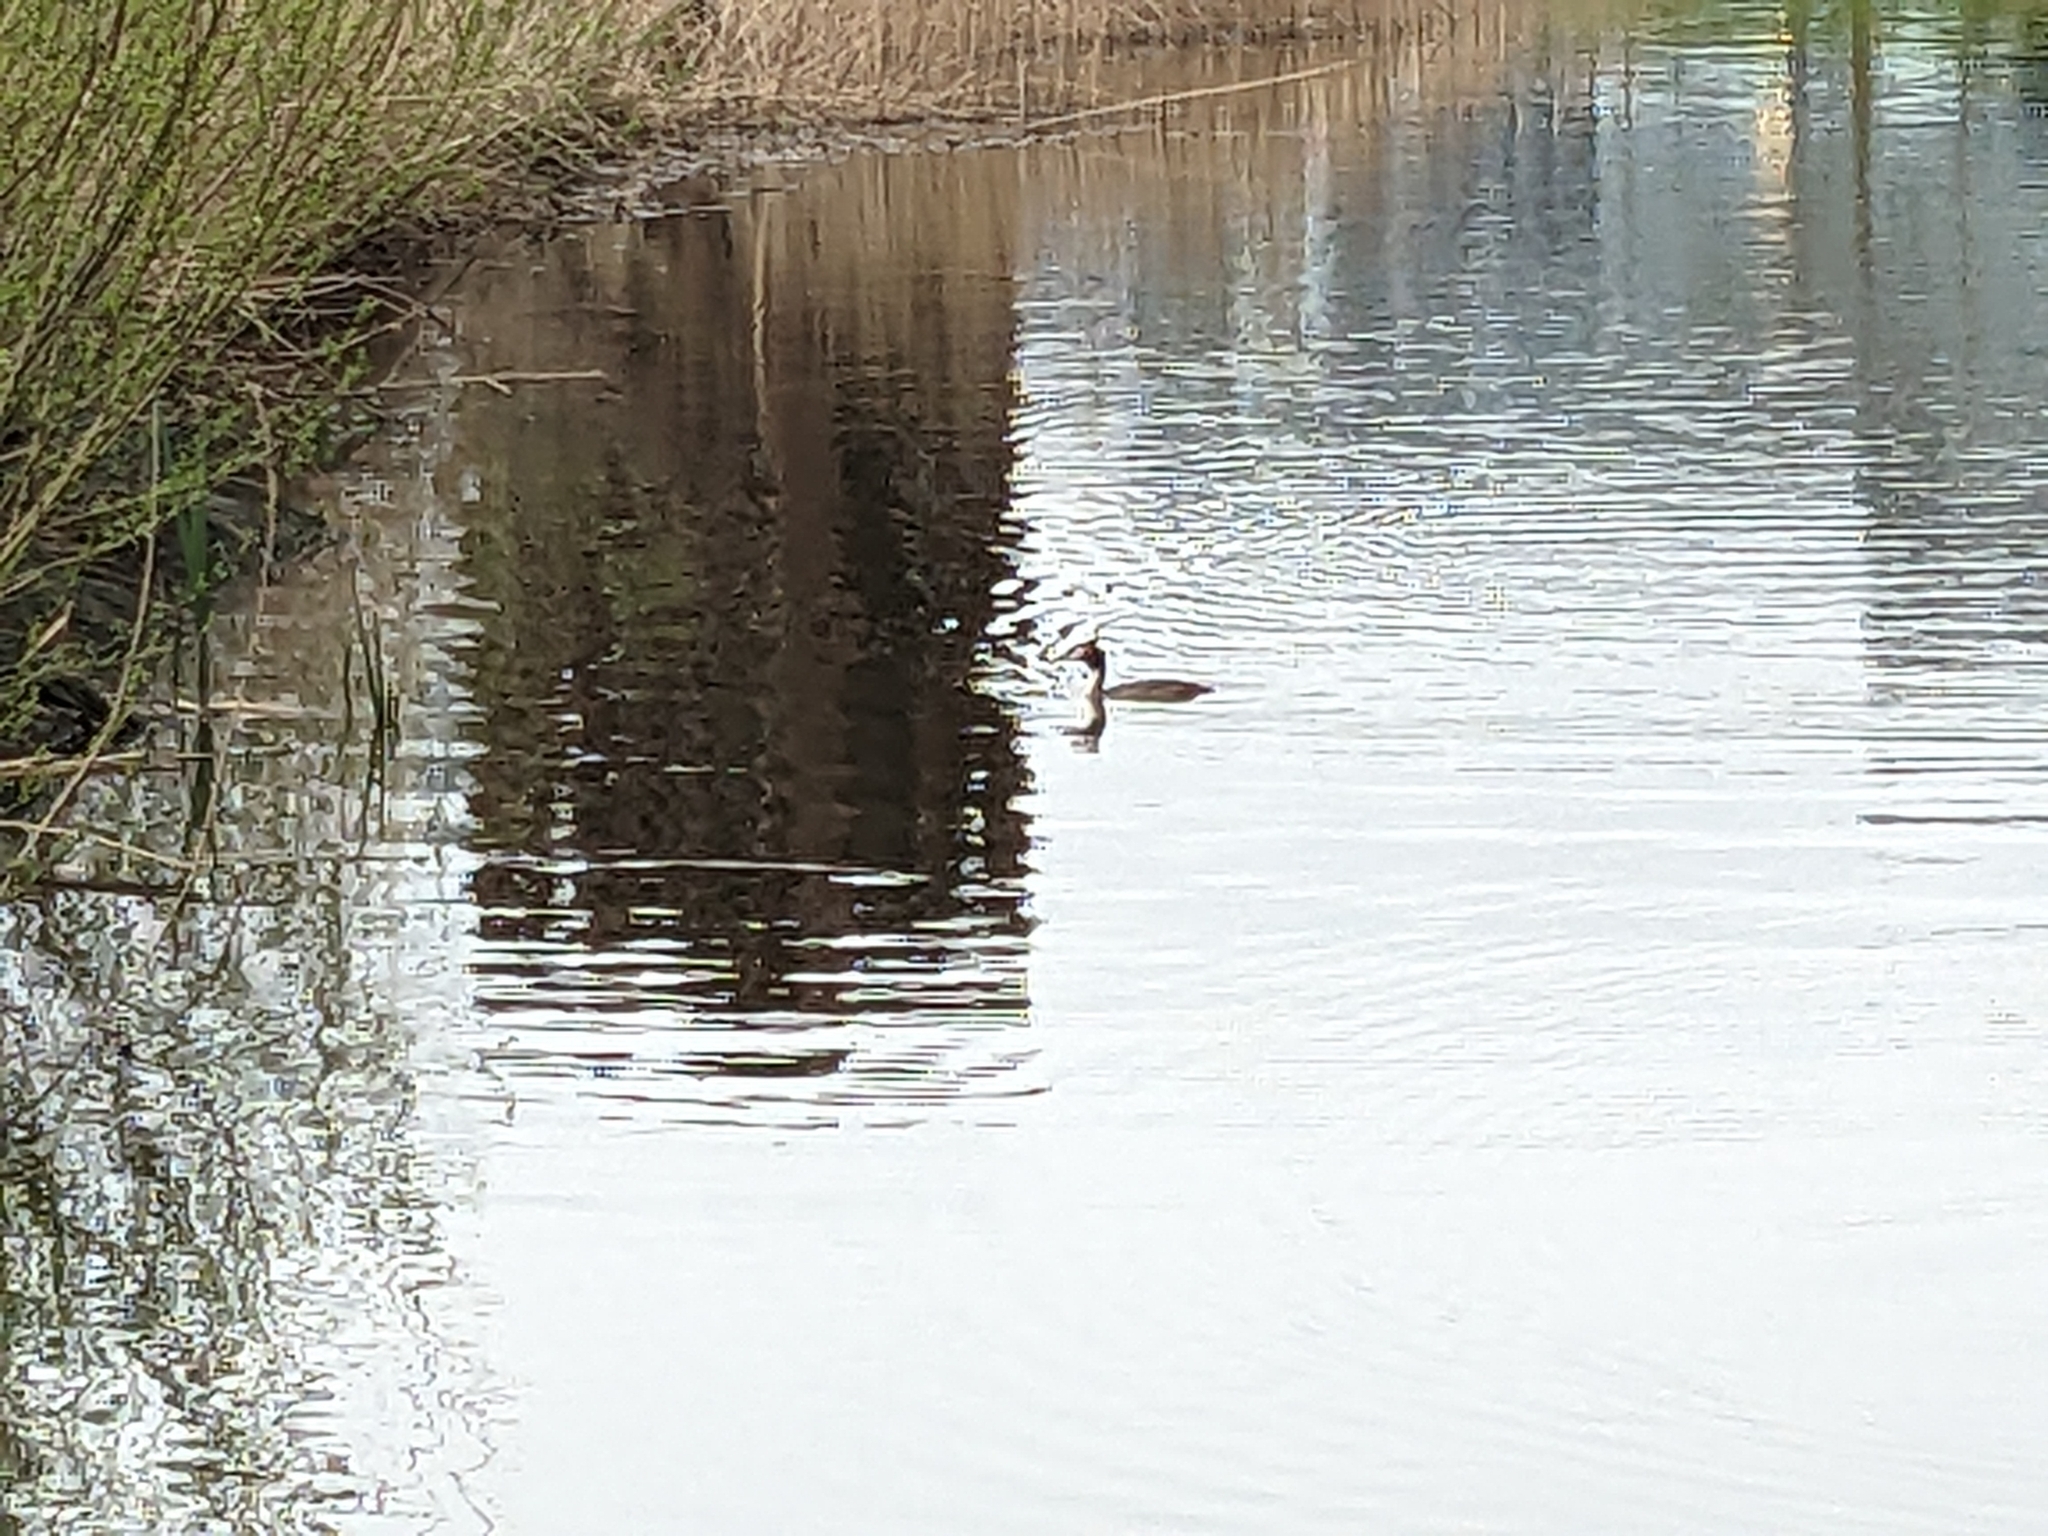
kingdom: Animalia
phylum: Chordata
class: Aves
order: Podicipediformes
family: Podicipedidae
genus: Podiceps
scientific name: Podiceps cristatus
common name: Great crested grebe
